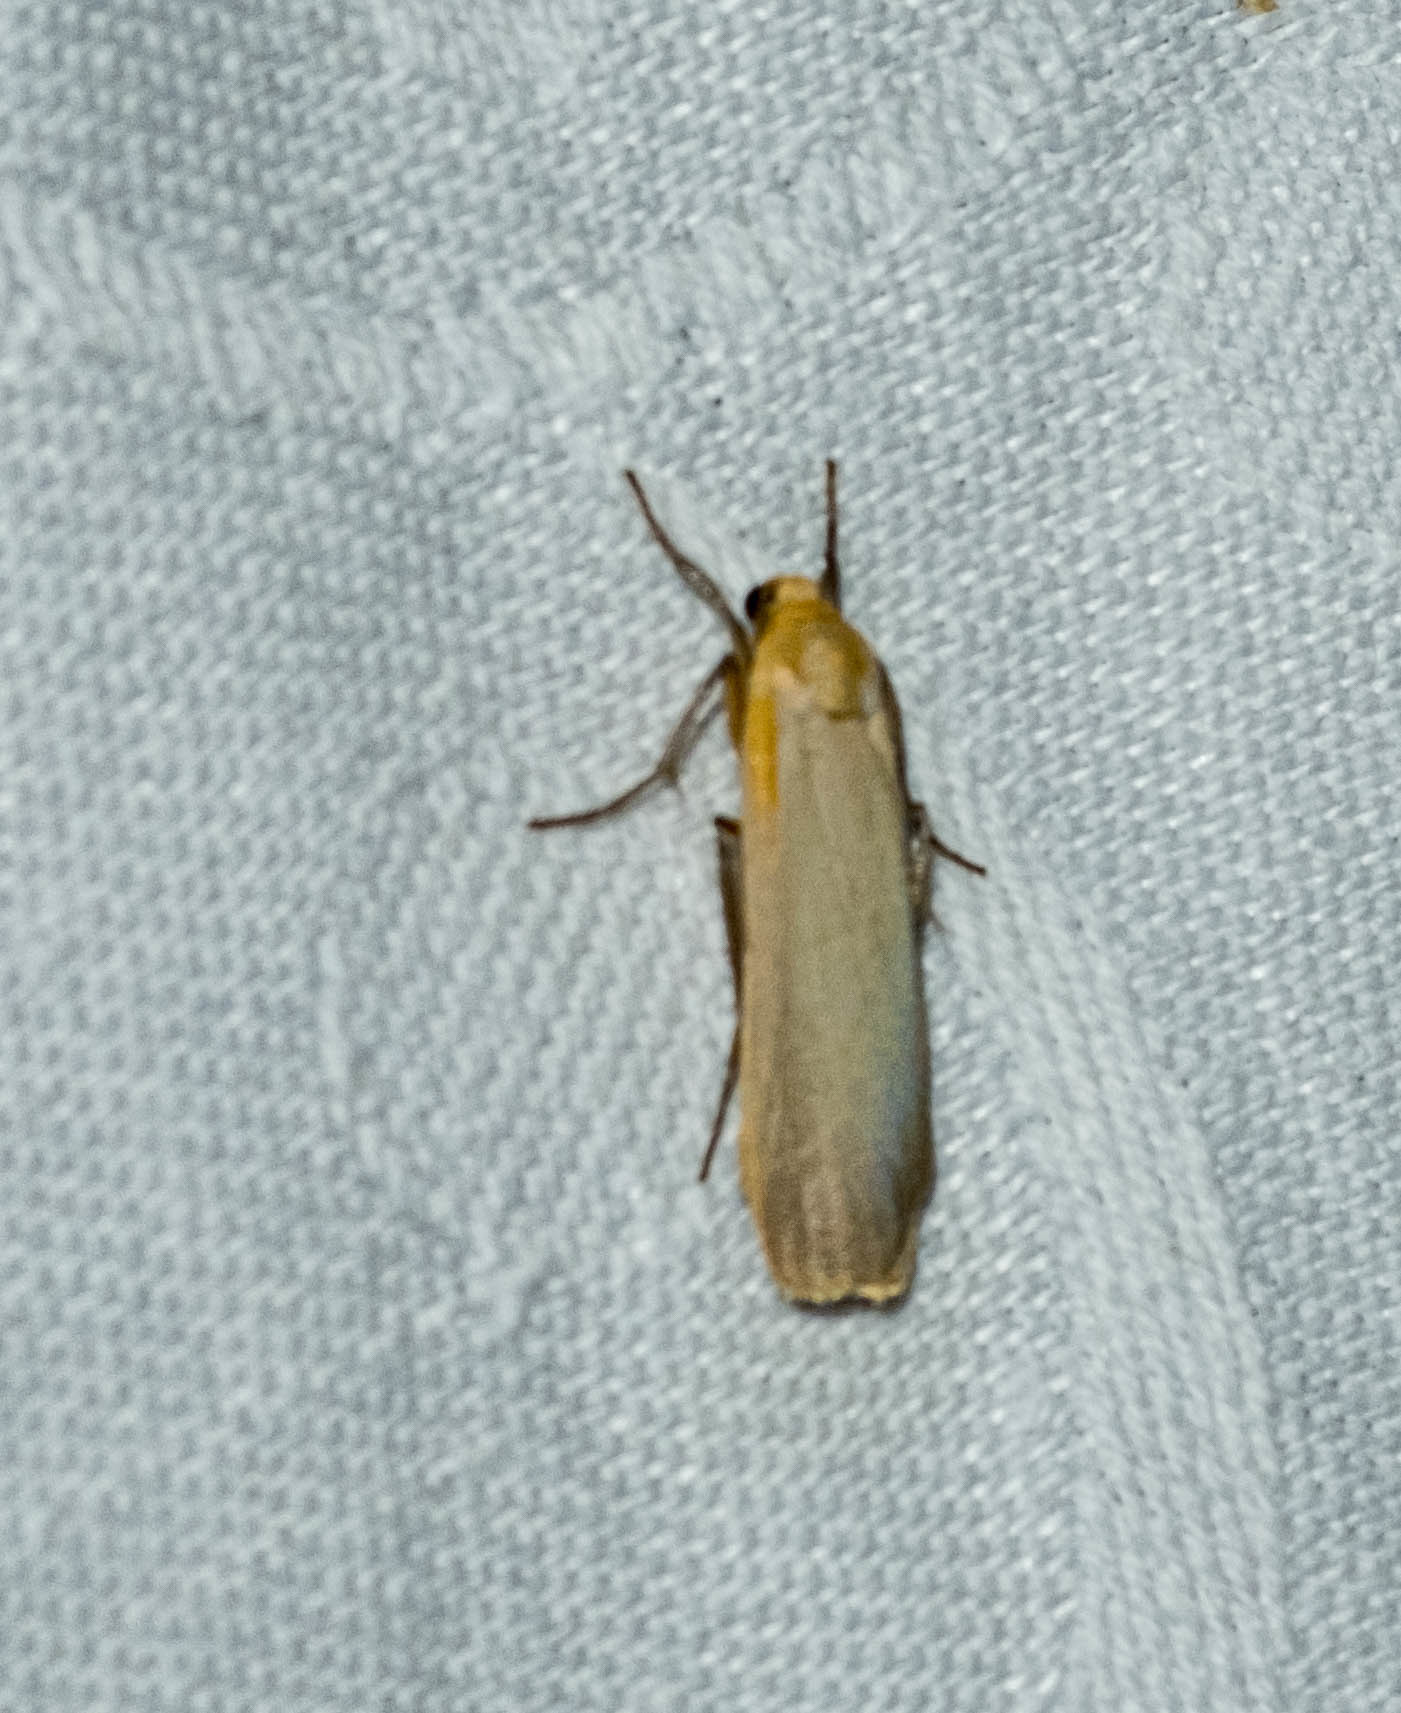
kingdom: Animalia
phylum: Arthropoda
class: Insecta
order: Lepidoptera
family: Erebidae
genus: Katha
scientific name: Katha depressa
